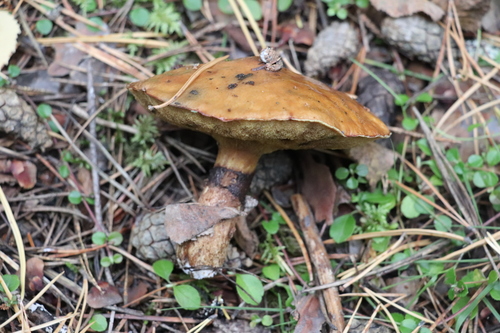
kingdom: Fungi
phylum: Basidiomycota
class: Agaricomycetes
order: Boletales
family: Suillaceae
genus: Suillus
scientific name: Suillus luteus
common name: Slippery jack
